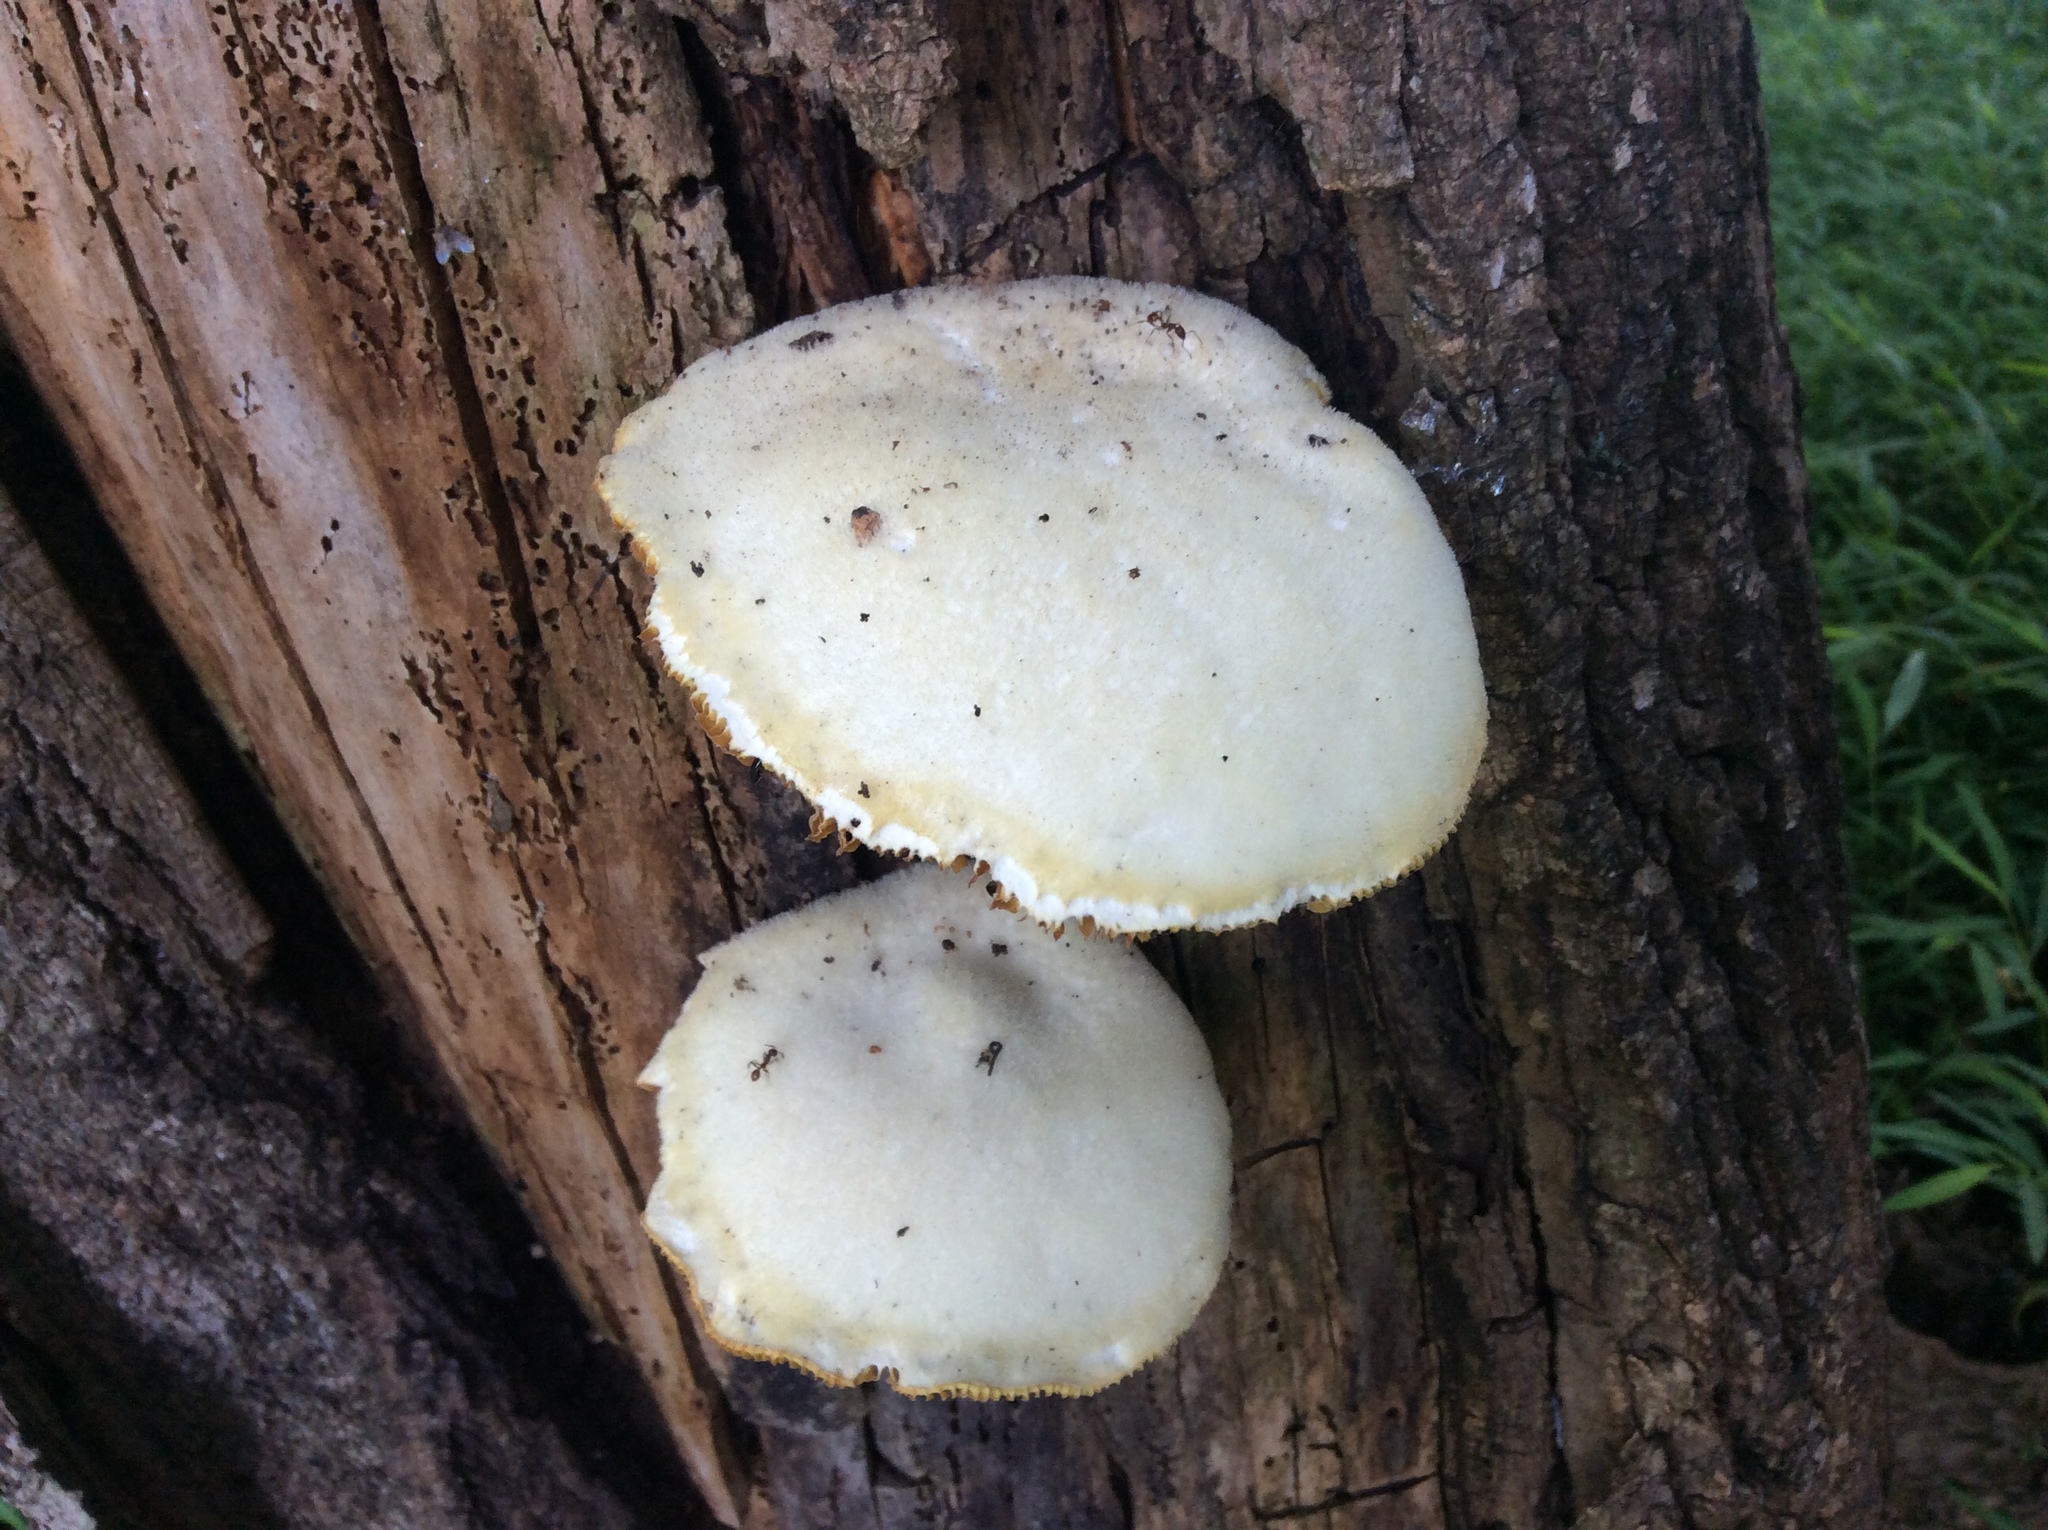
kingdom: Fungi
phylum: Basidiomycota
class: Agaricomycetes
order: Polyporales
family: Polyporaceae
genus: Lentinus
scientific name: Lentinus levis
